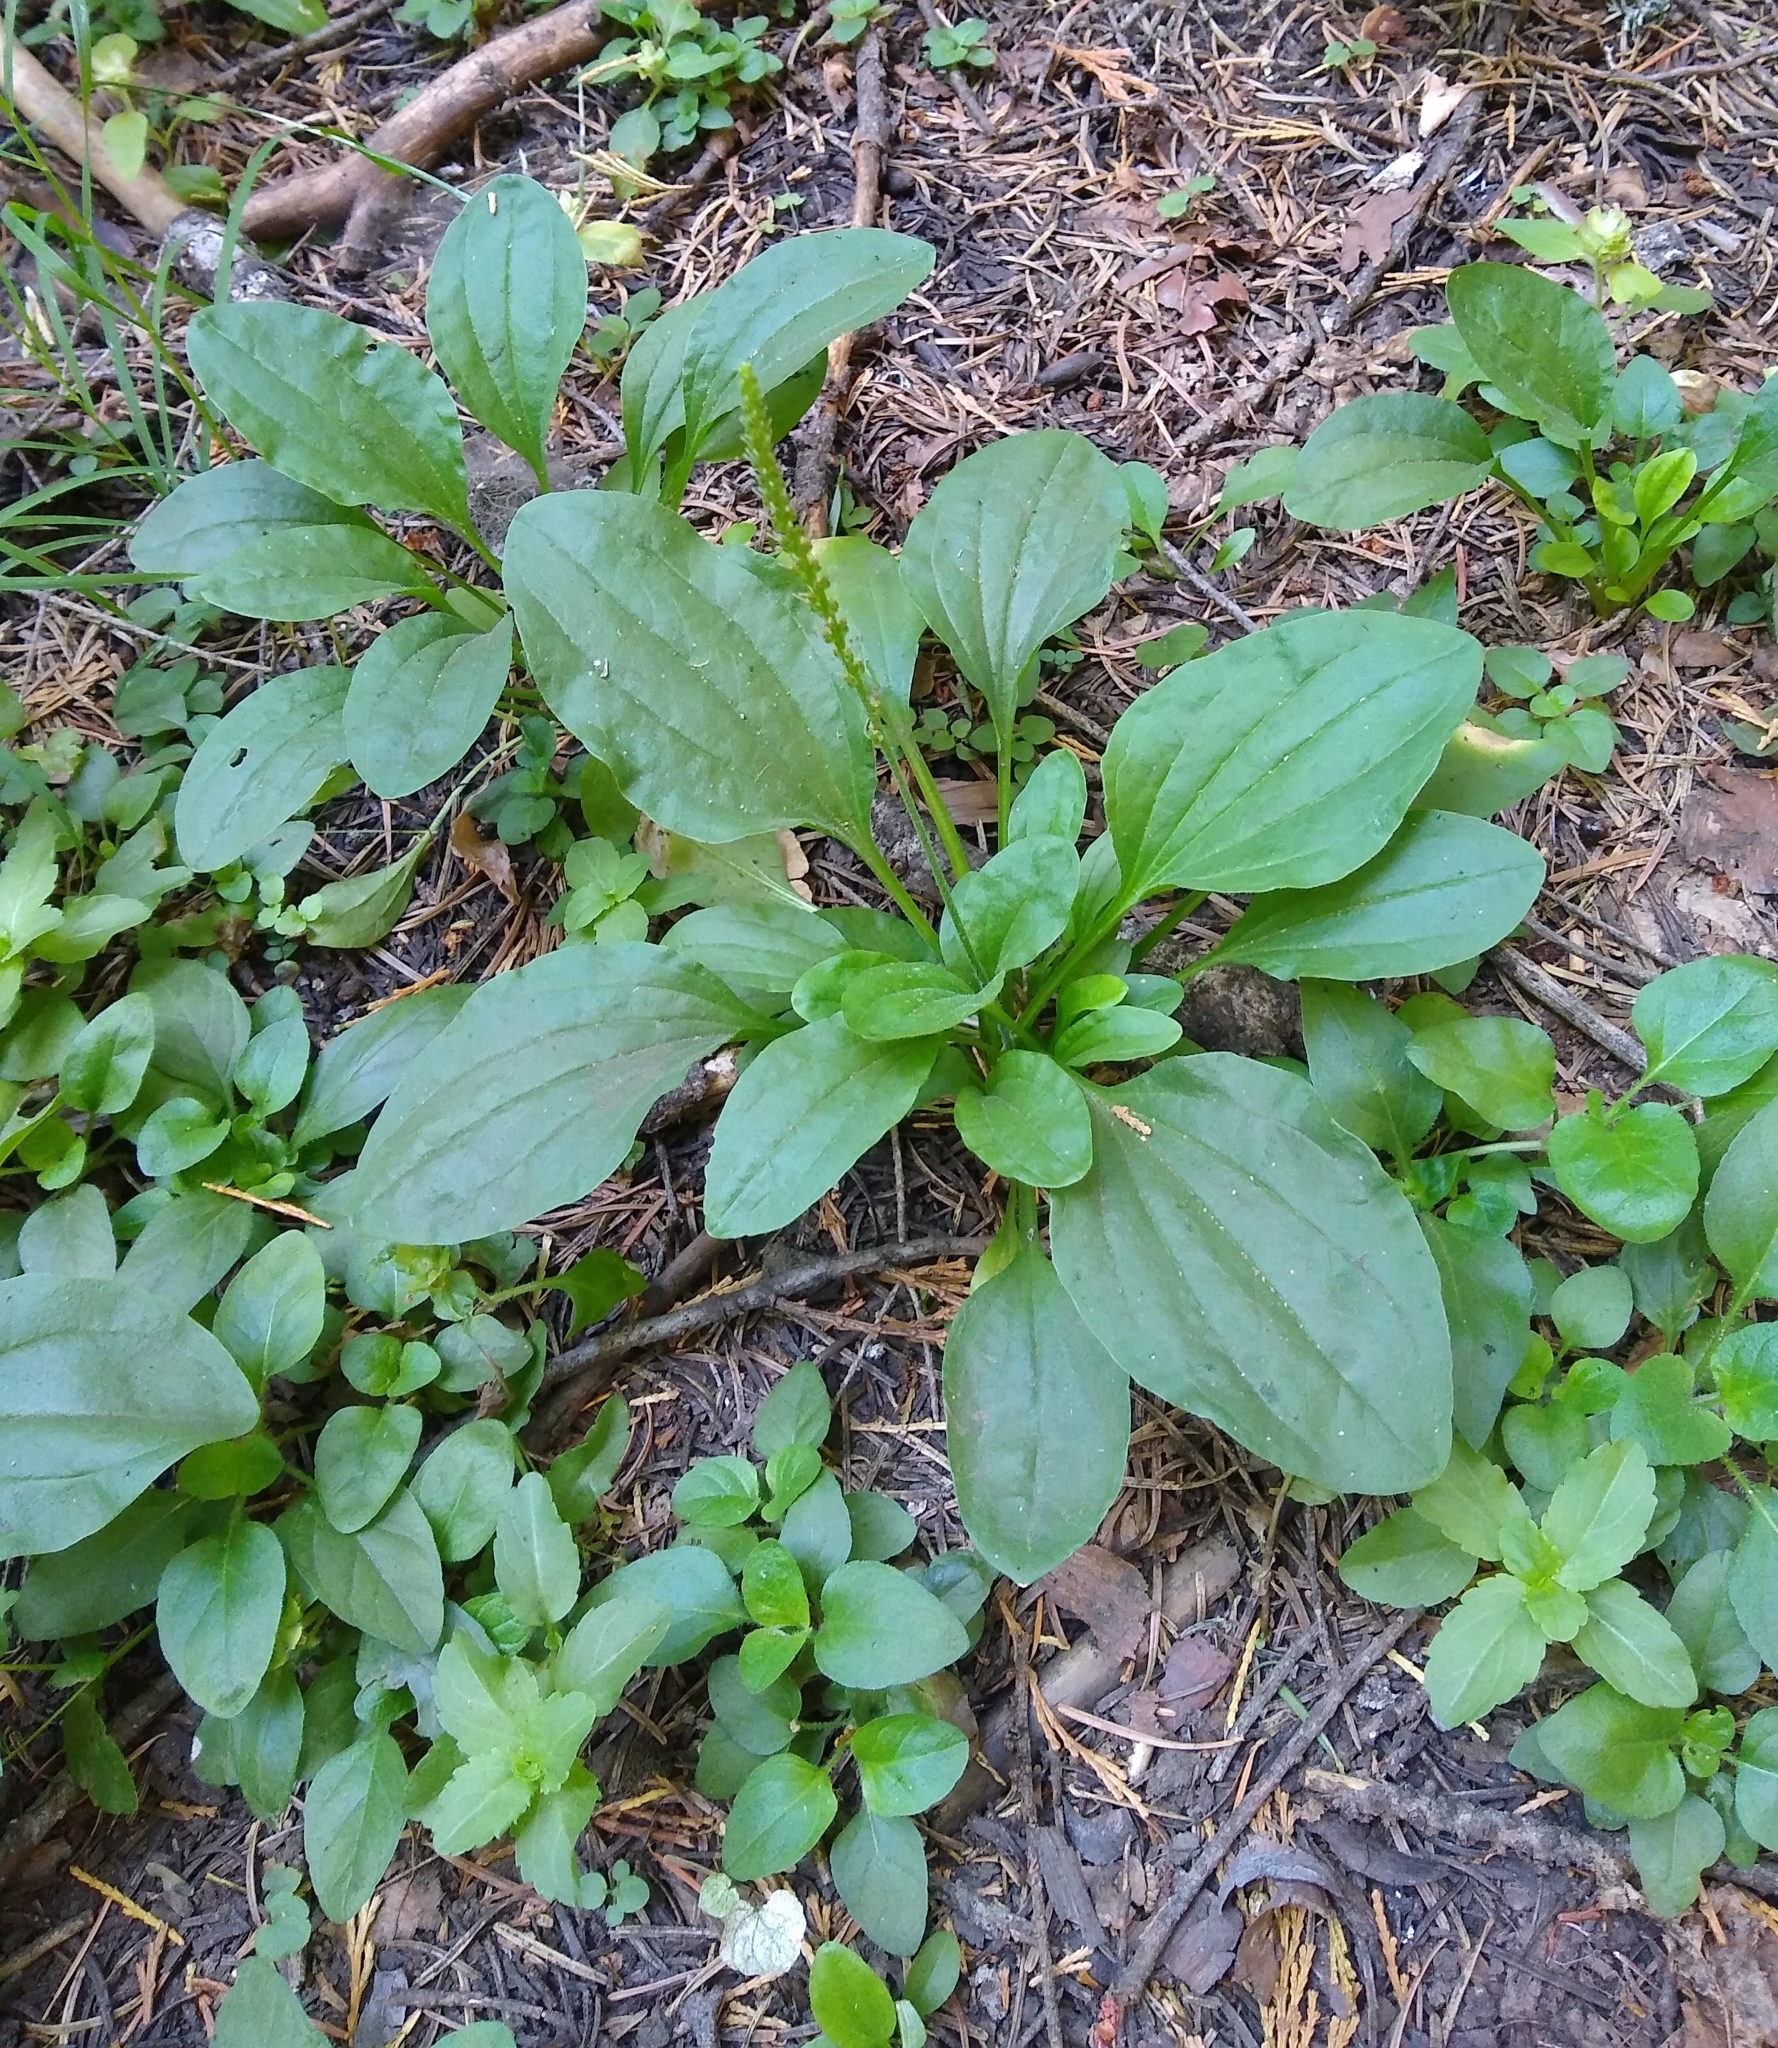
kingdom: Plantae
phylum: Tracheophyta
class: Magnoliopsida
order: Lamiales
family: Plantaginaceae
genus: Plantago
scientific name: Plantago major
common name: Common plantain
